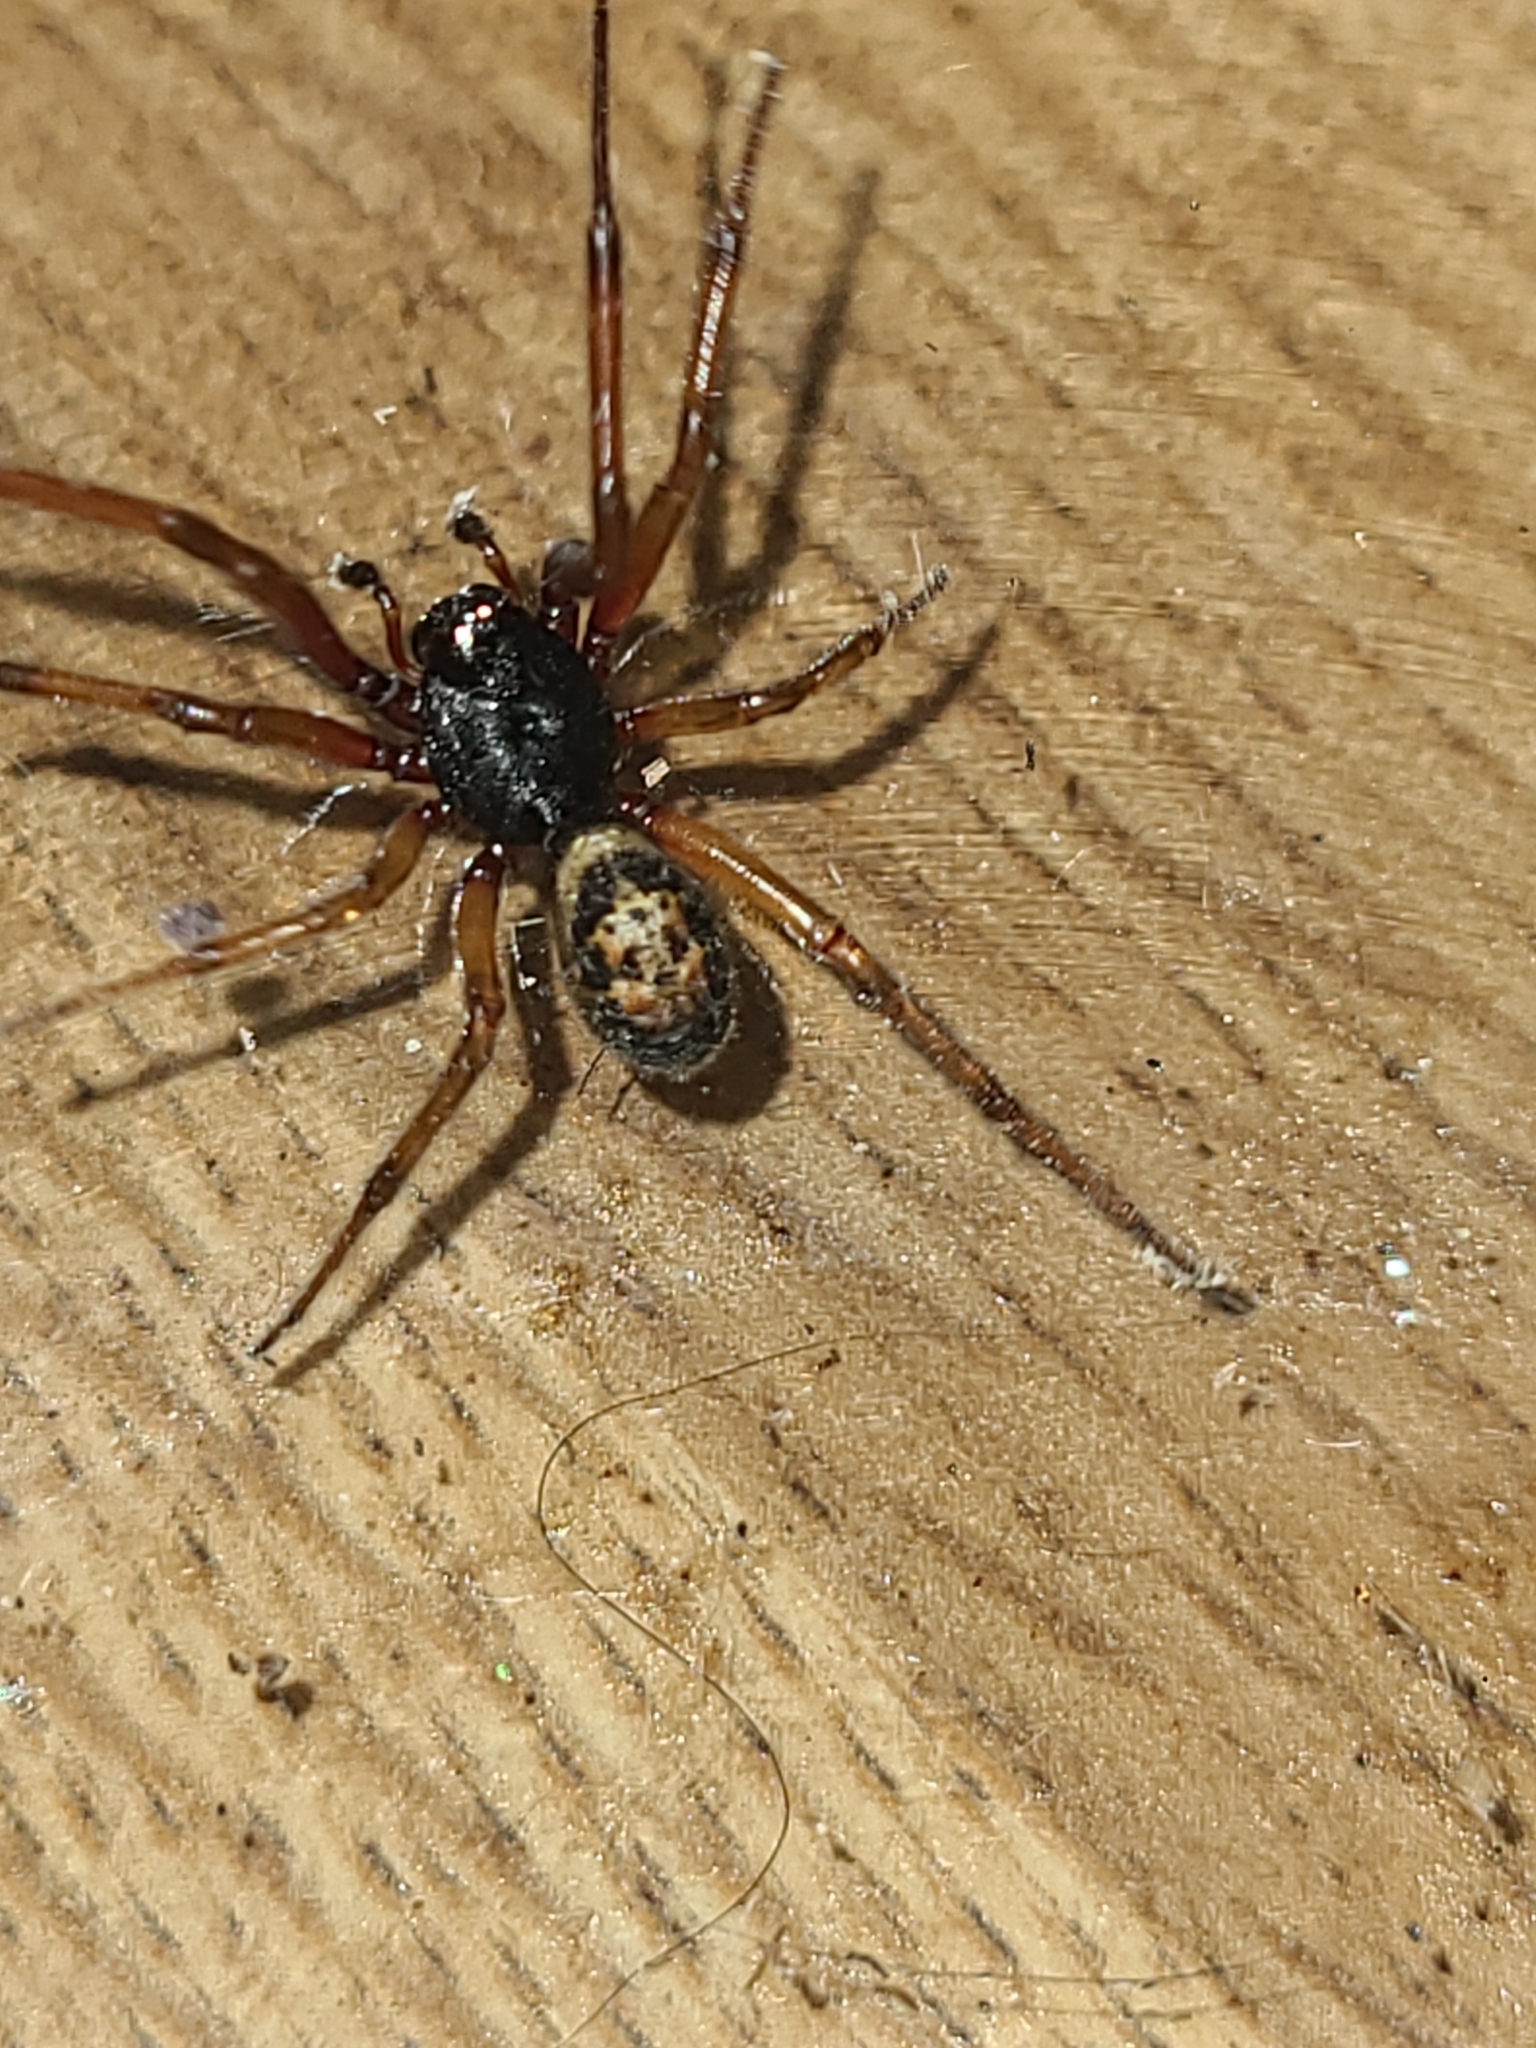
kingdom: Animalia
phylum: Arthropoda
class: Arachnida
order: Araneae
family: Theridiidae
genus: Steatoda
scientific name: Steatoda nobilis
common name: Cobweb weaver
